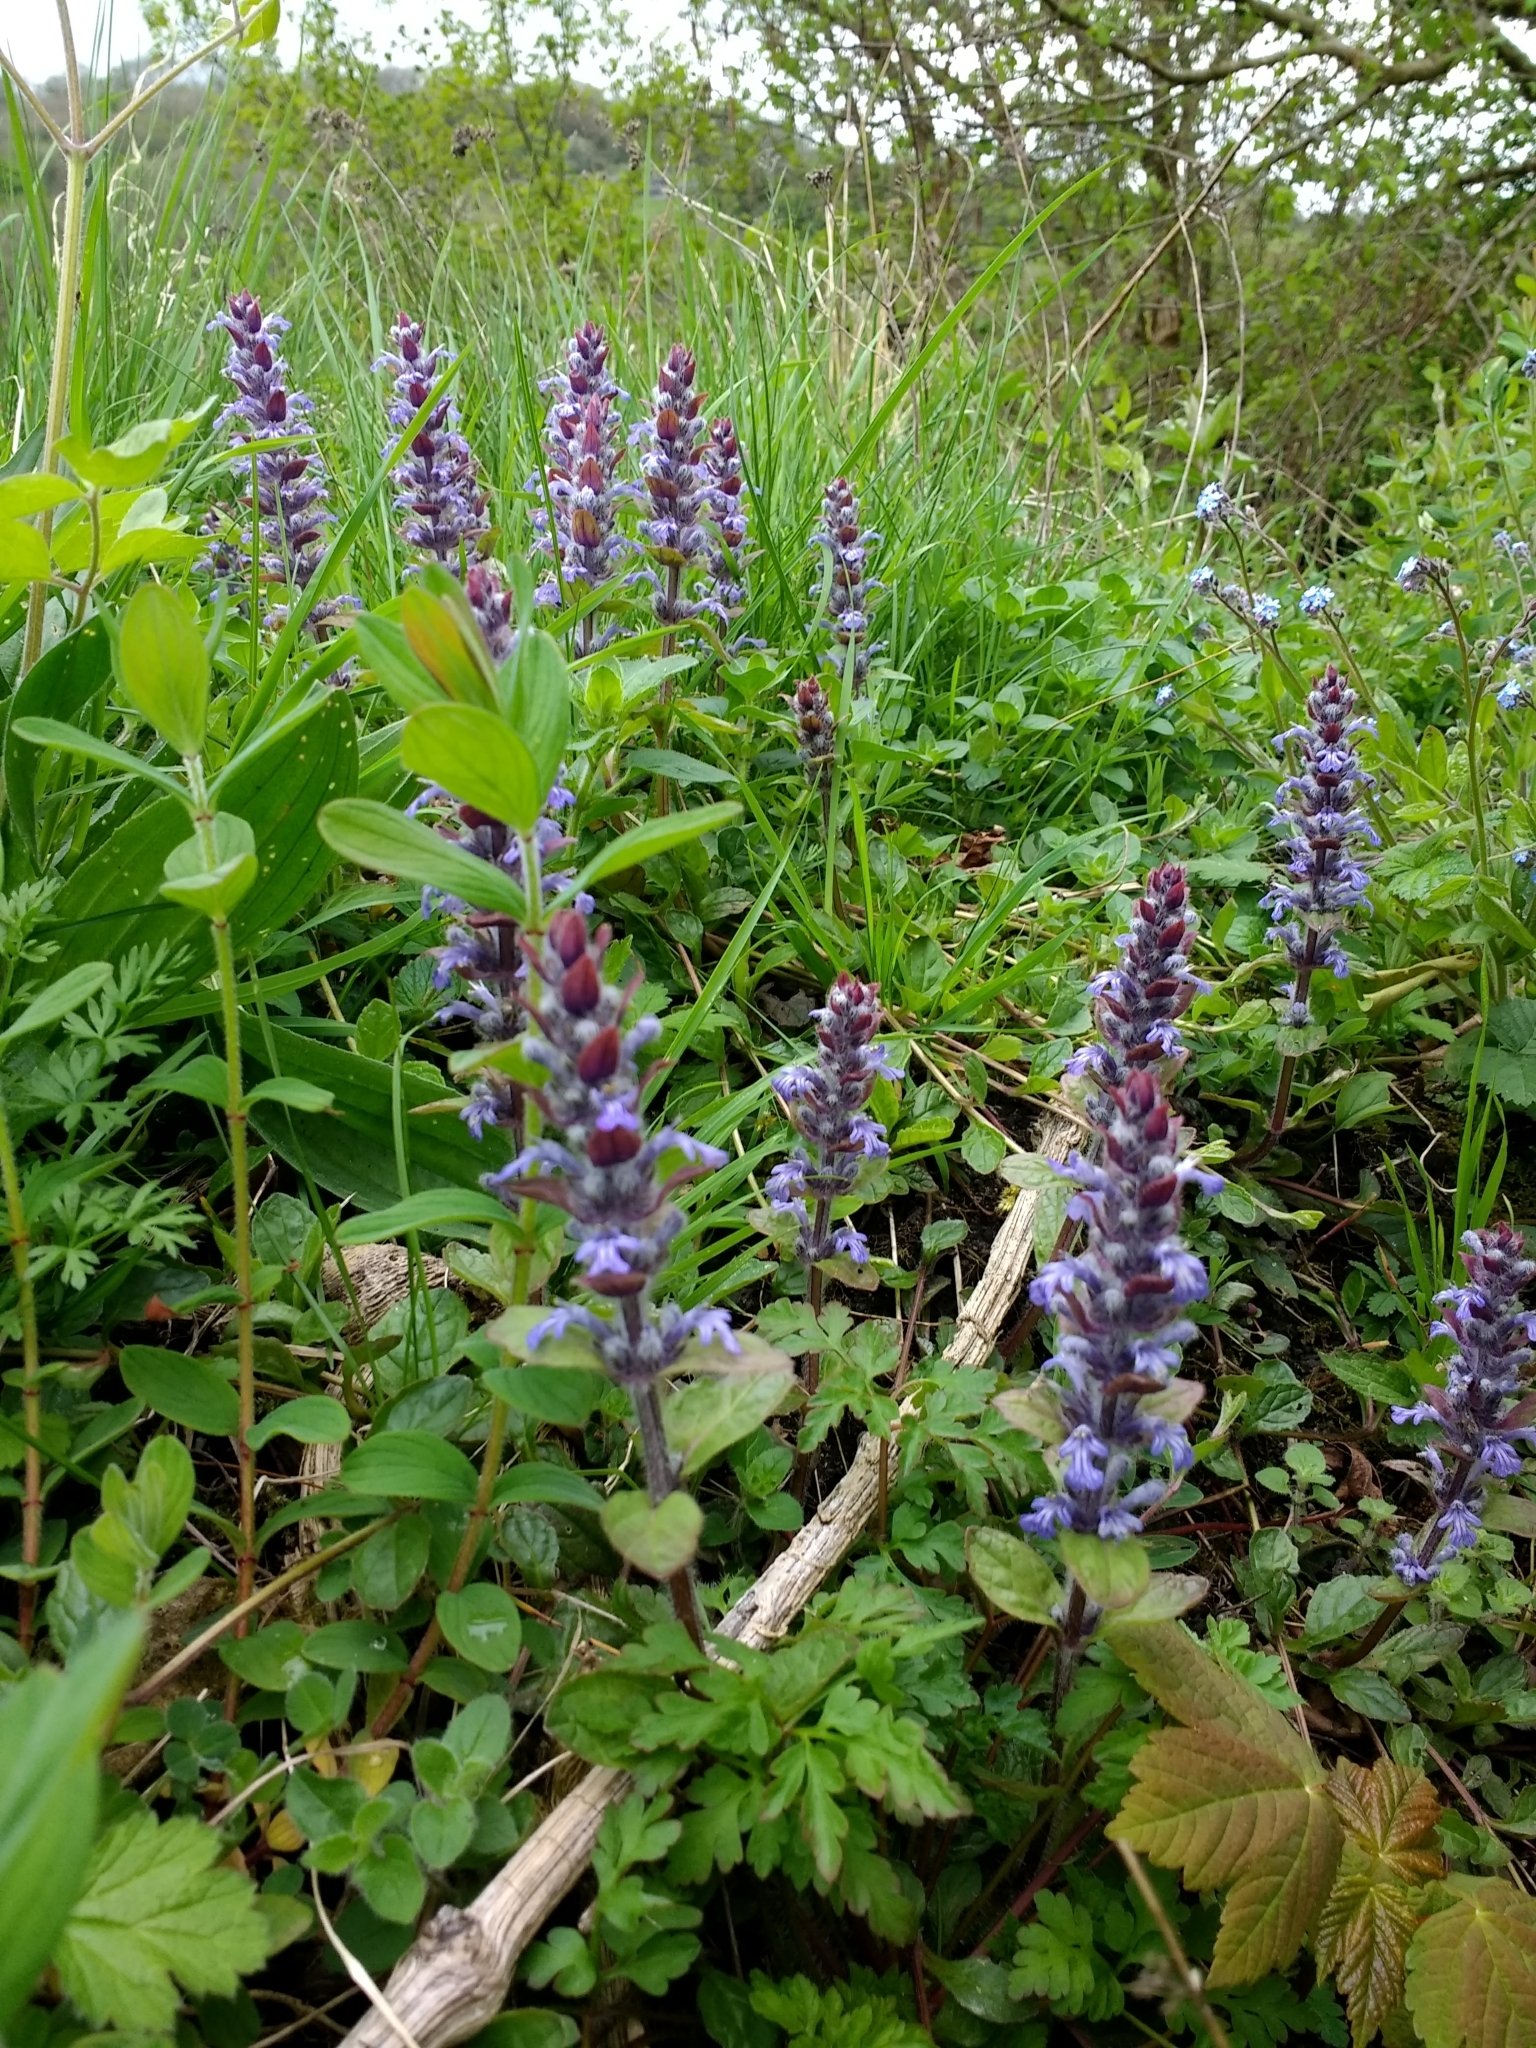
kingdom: Plantae
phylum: Tracheophyta
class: Magnoliopsida
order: Lamiales
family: Lamiaceae
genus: Ajuga
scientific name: Ajuga reptans
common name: Bugle
